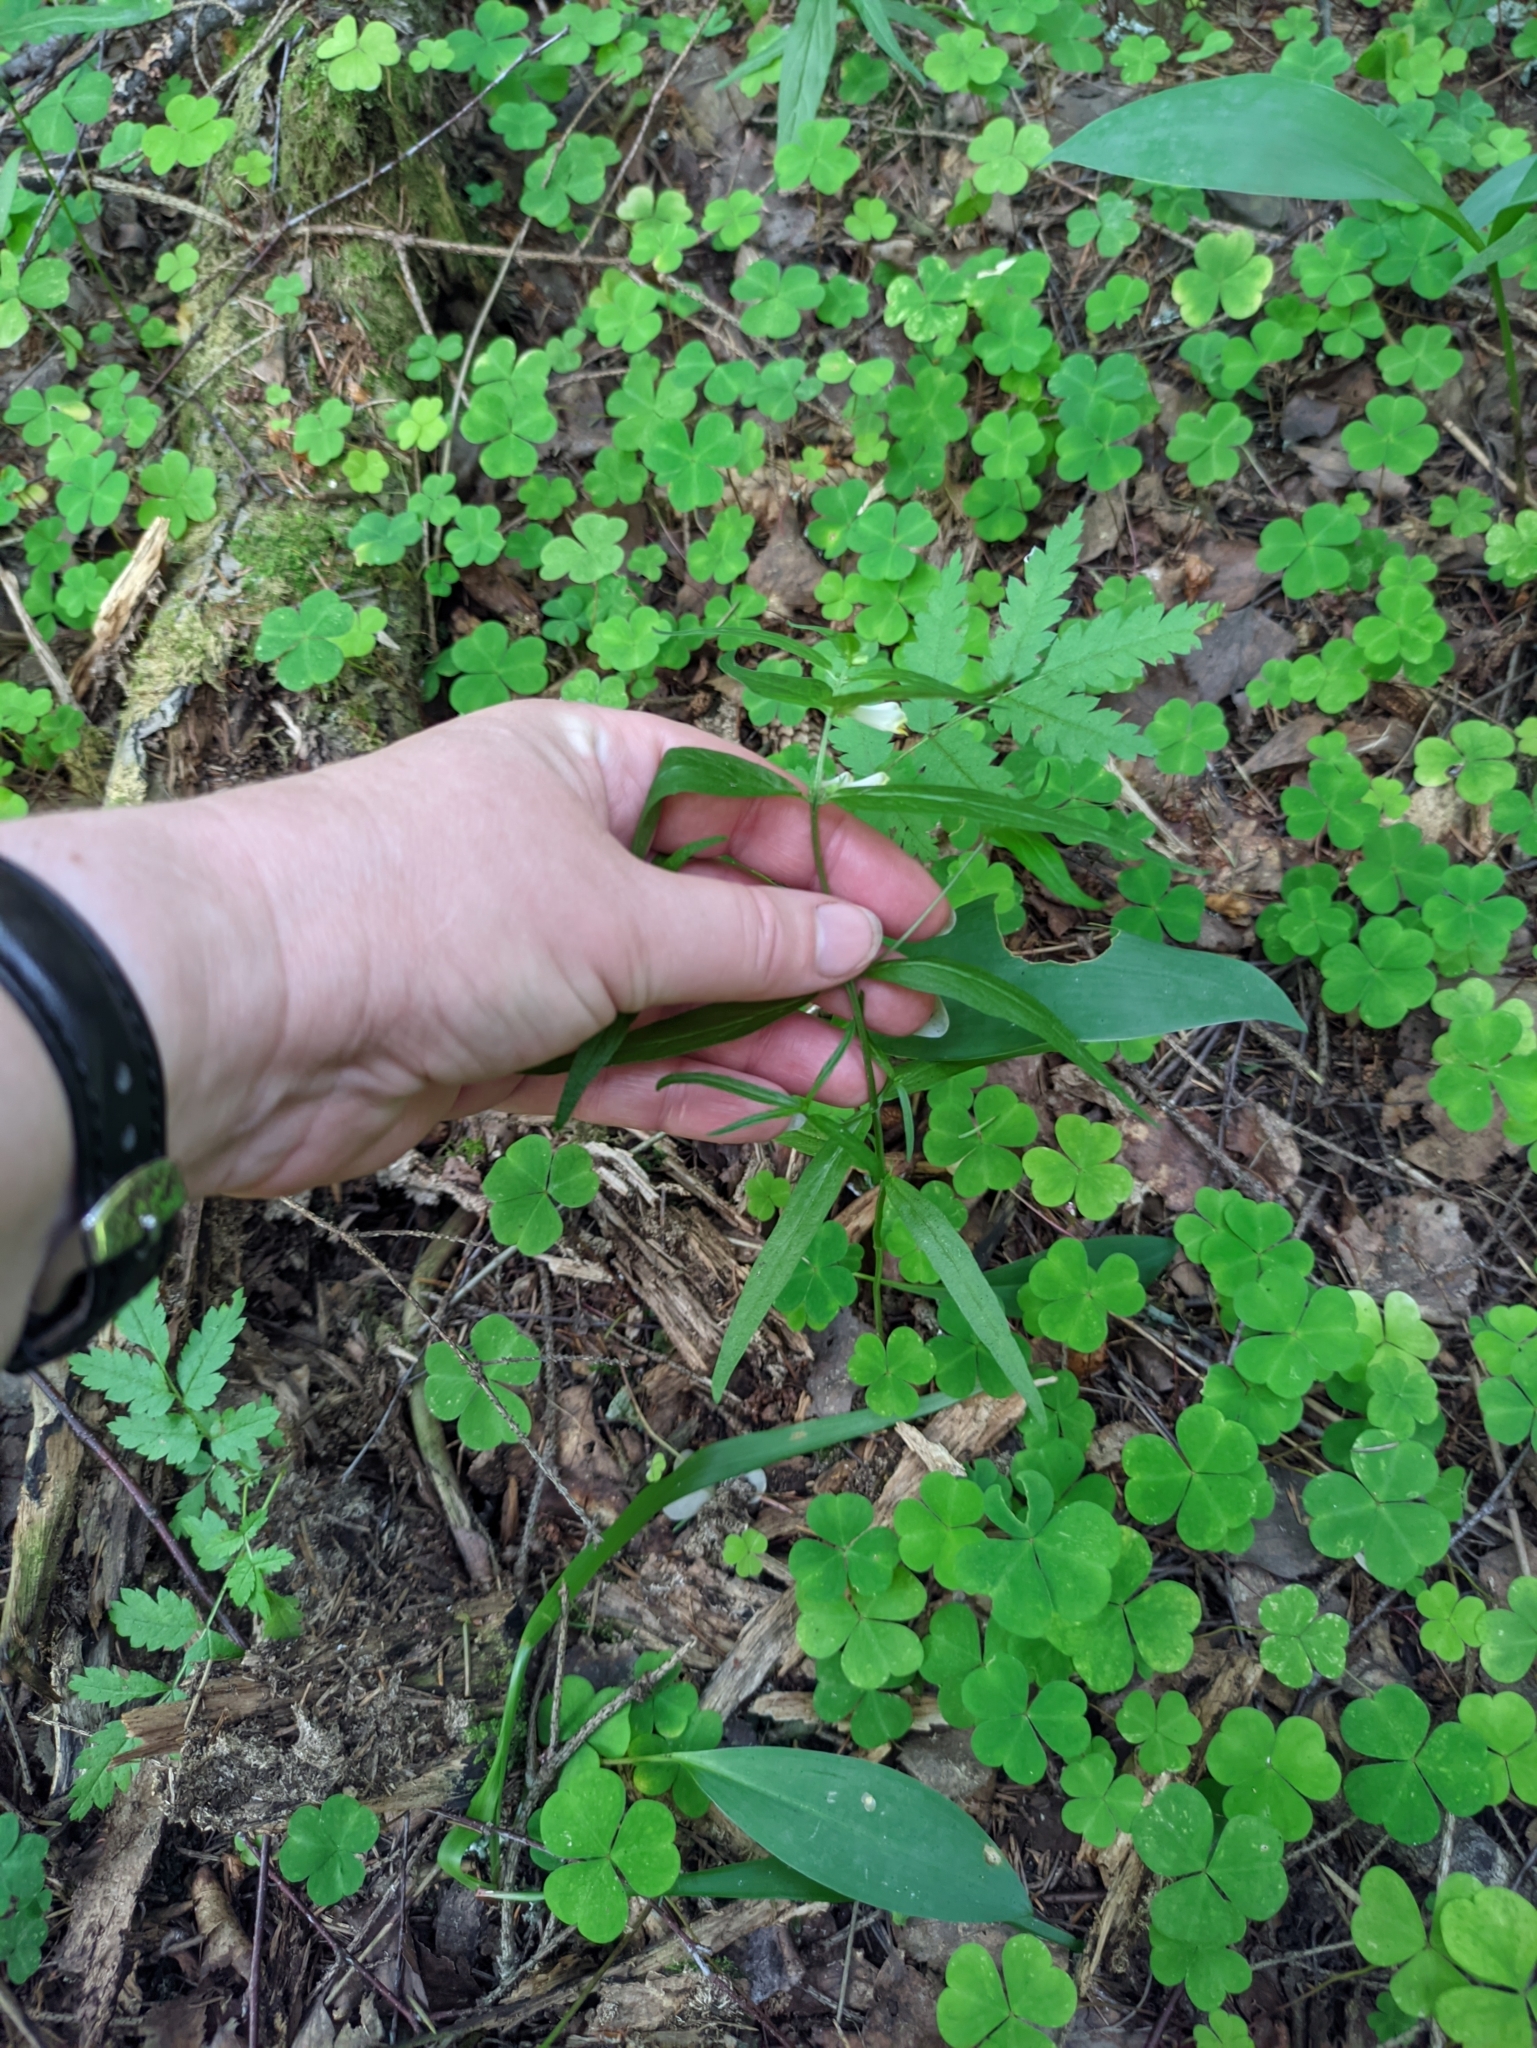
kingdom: Plantae
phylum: Tracheophyta
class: Magnoliopsida
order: Lamiales
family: Orobanchaceae
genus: Melampyrum
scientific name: Melampyrum pratense
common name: Common cow-wheat
